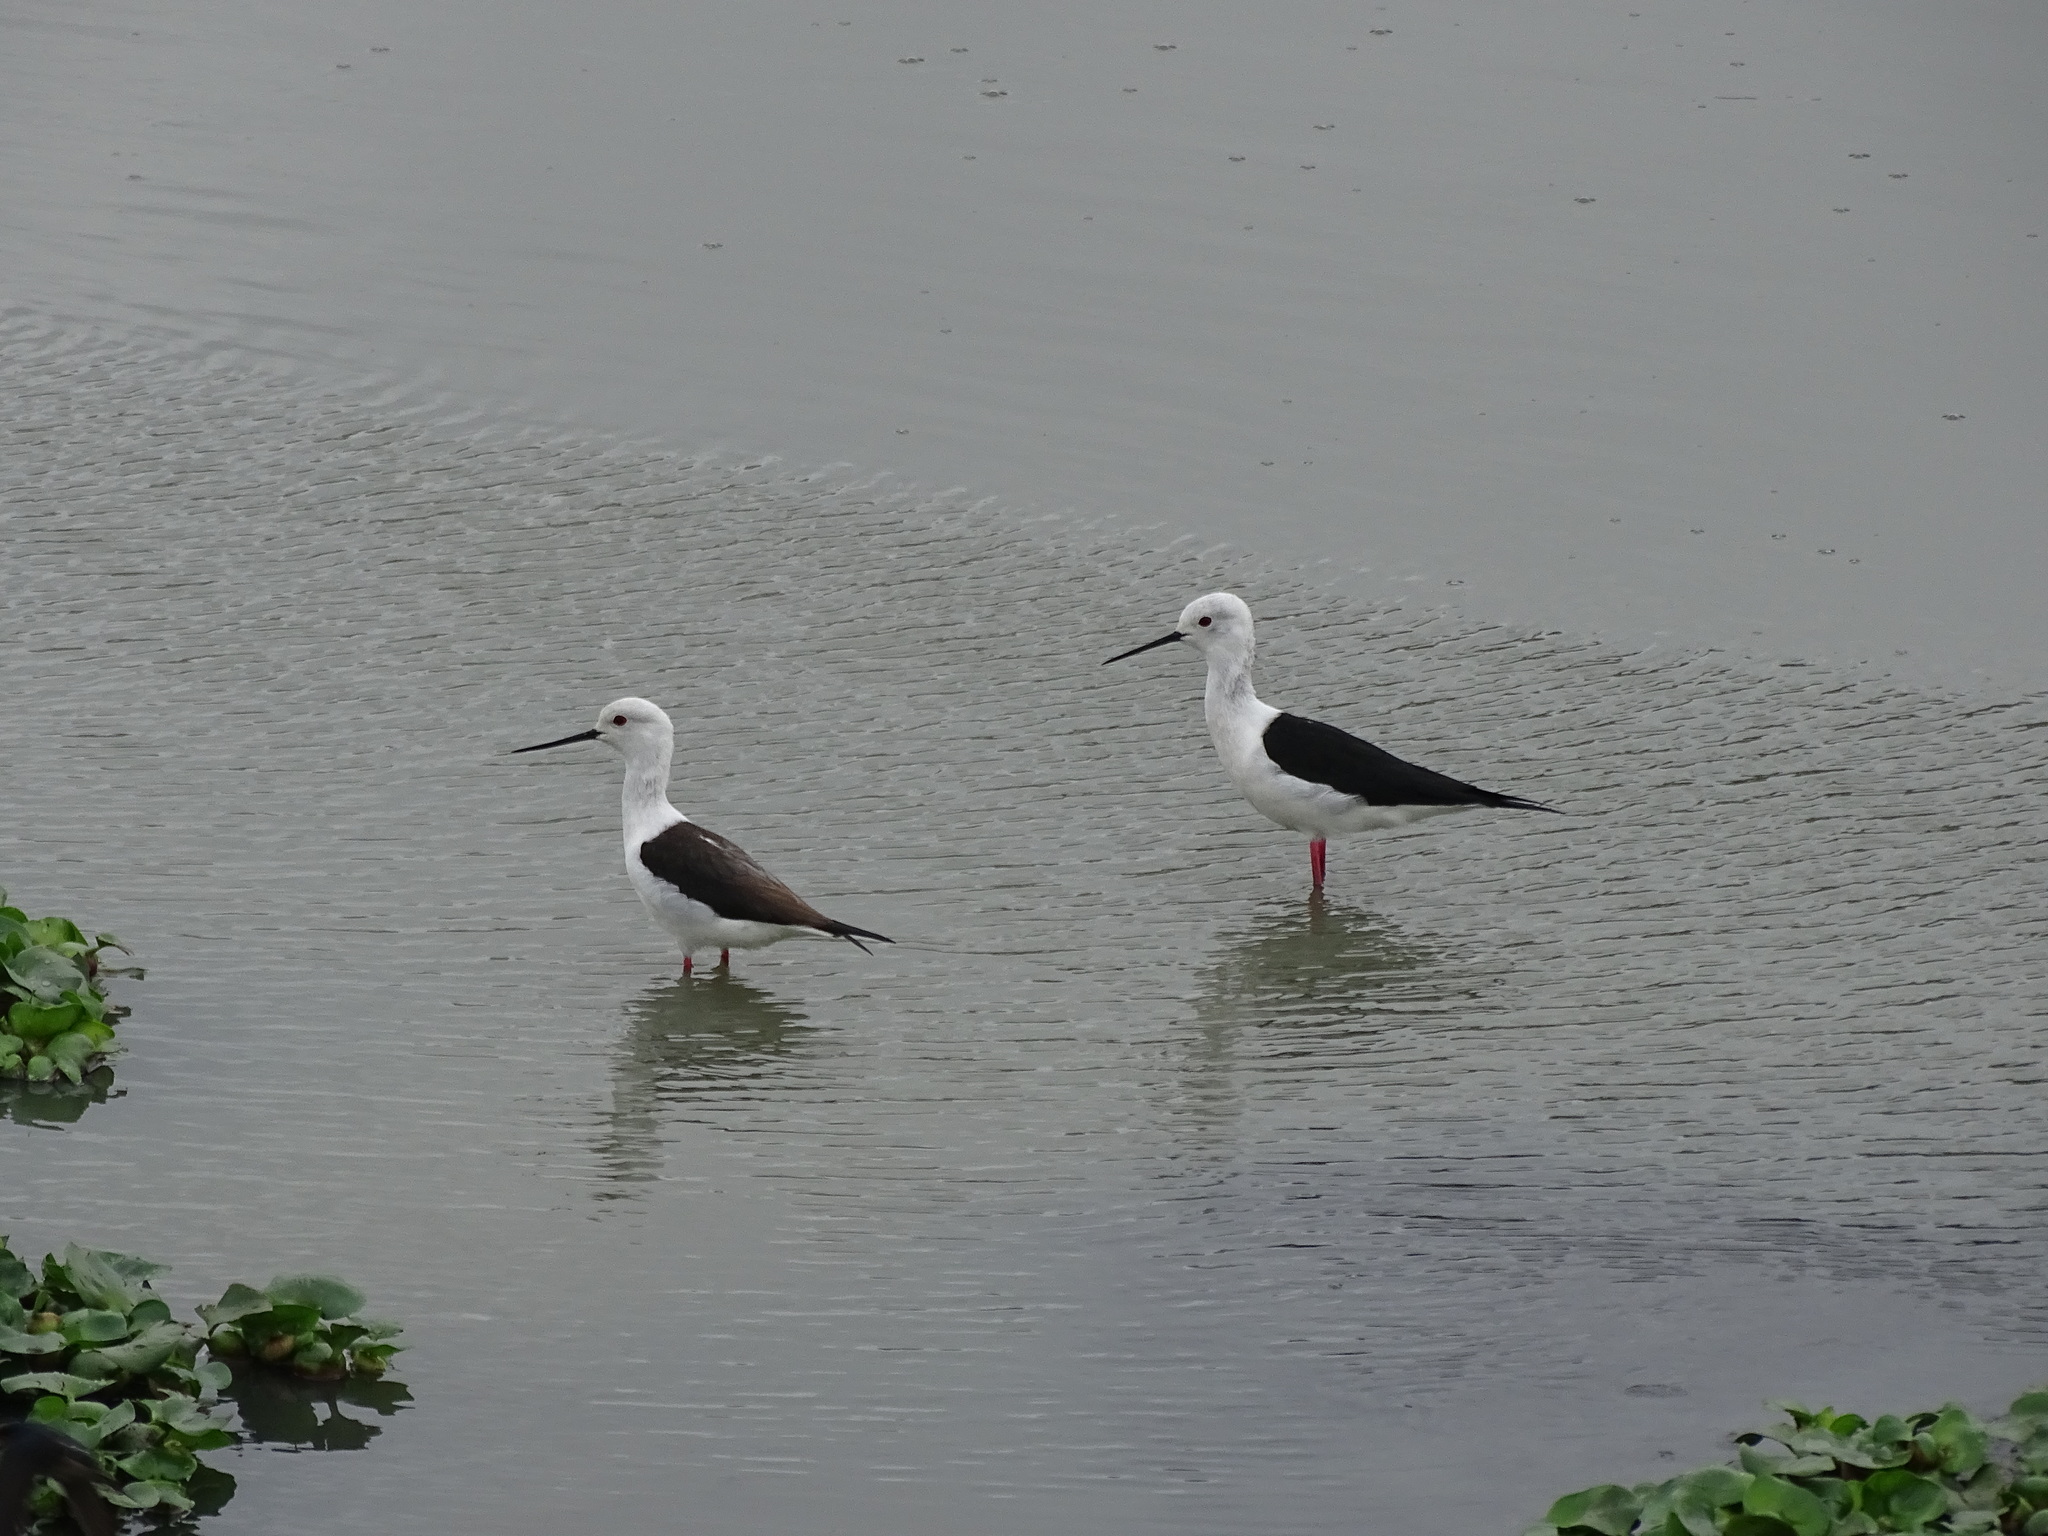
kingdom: Animalia
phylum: Chordata
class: Aves
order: Charadriiformes
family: Recurvirostridae
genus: Himantopus
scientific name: Himantopus himantopus
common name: Black-winged stilt
